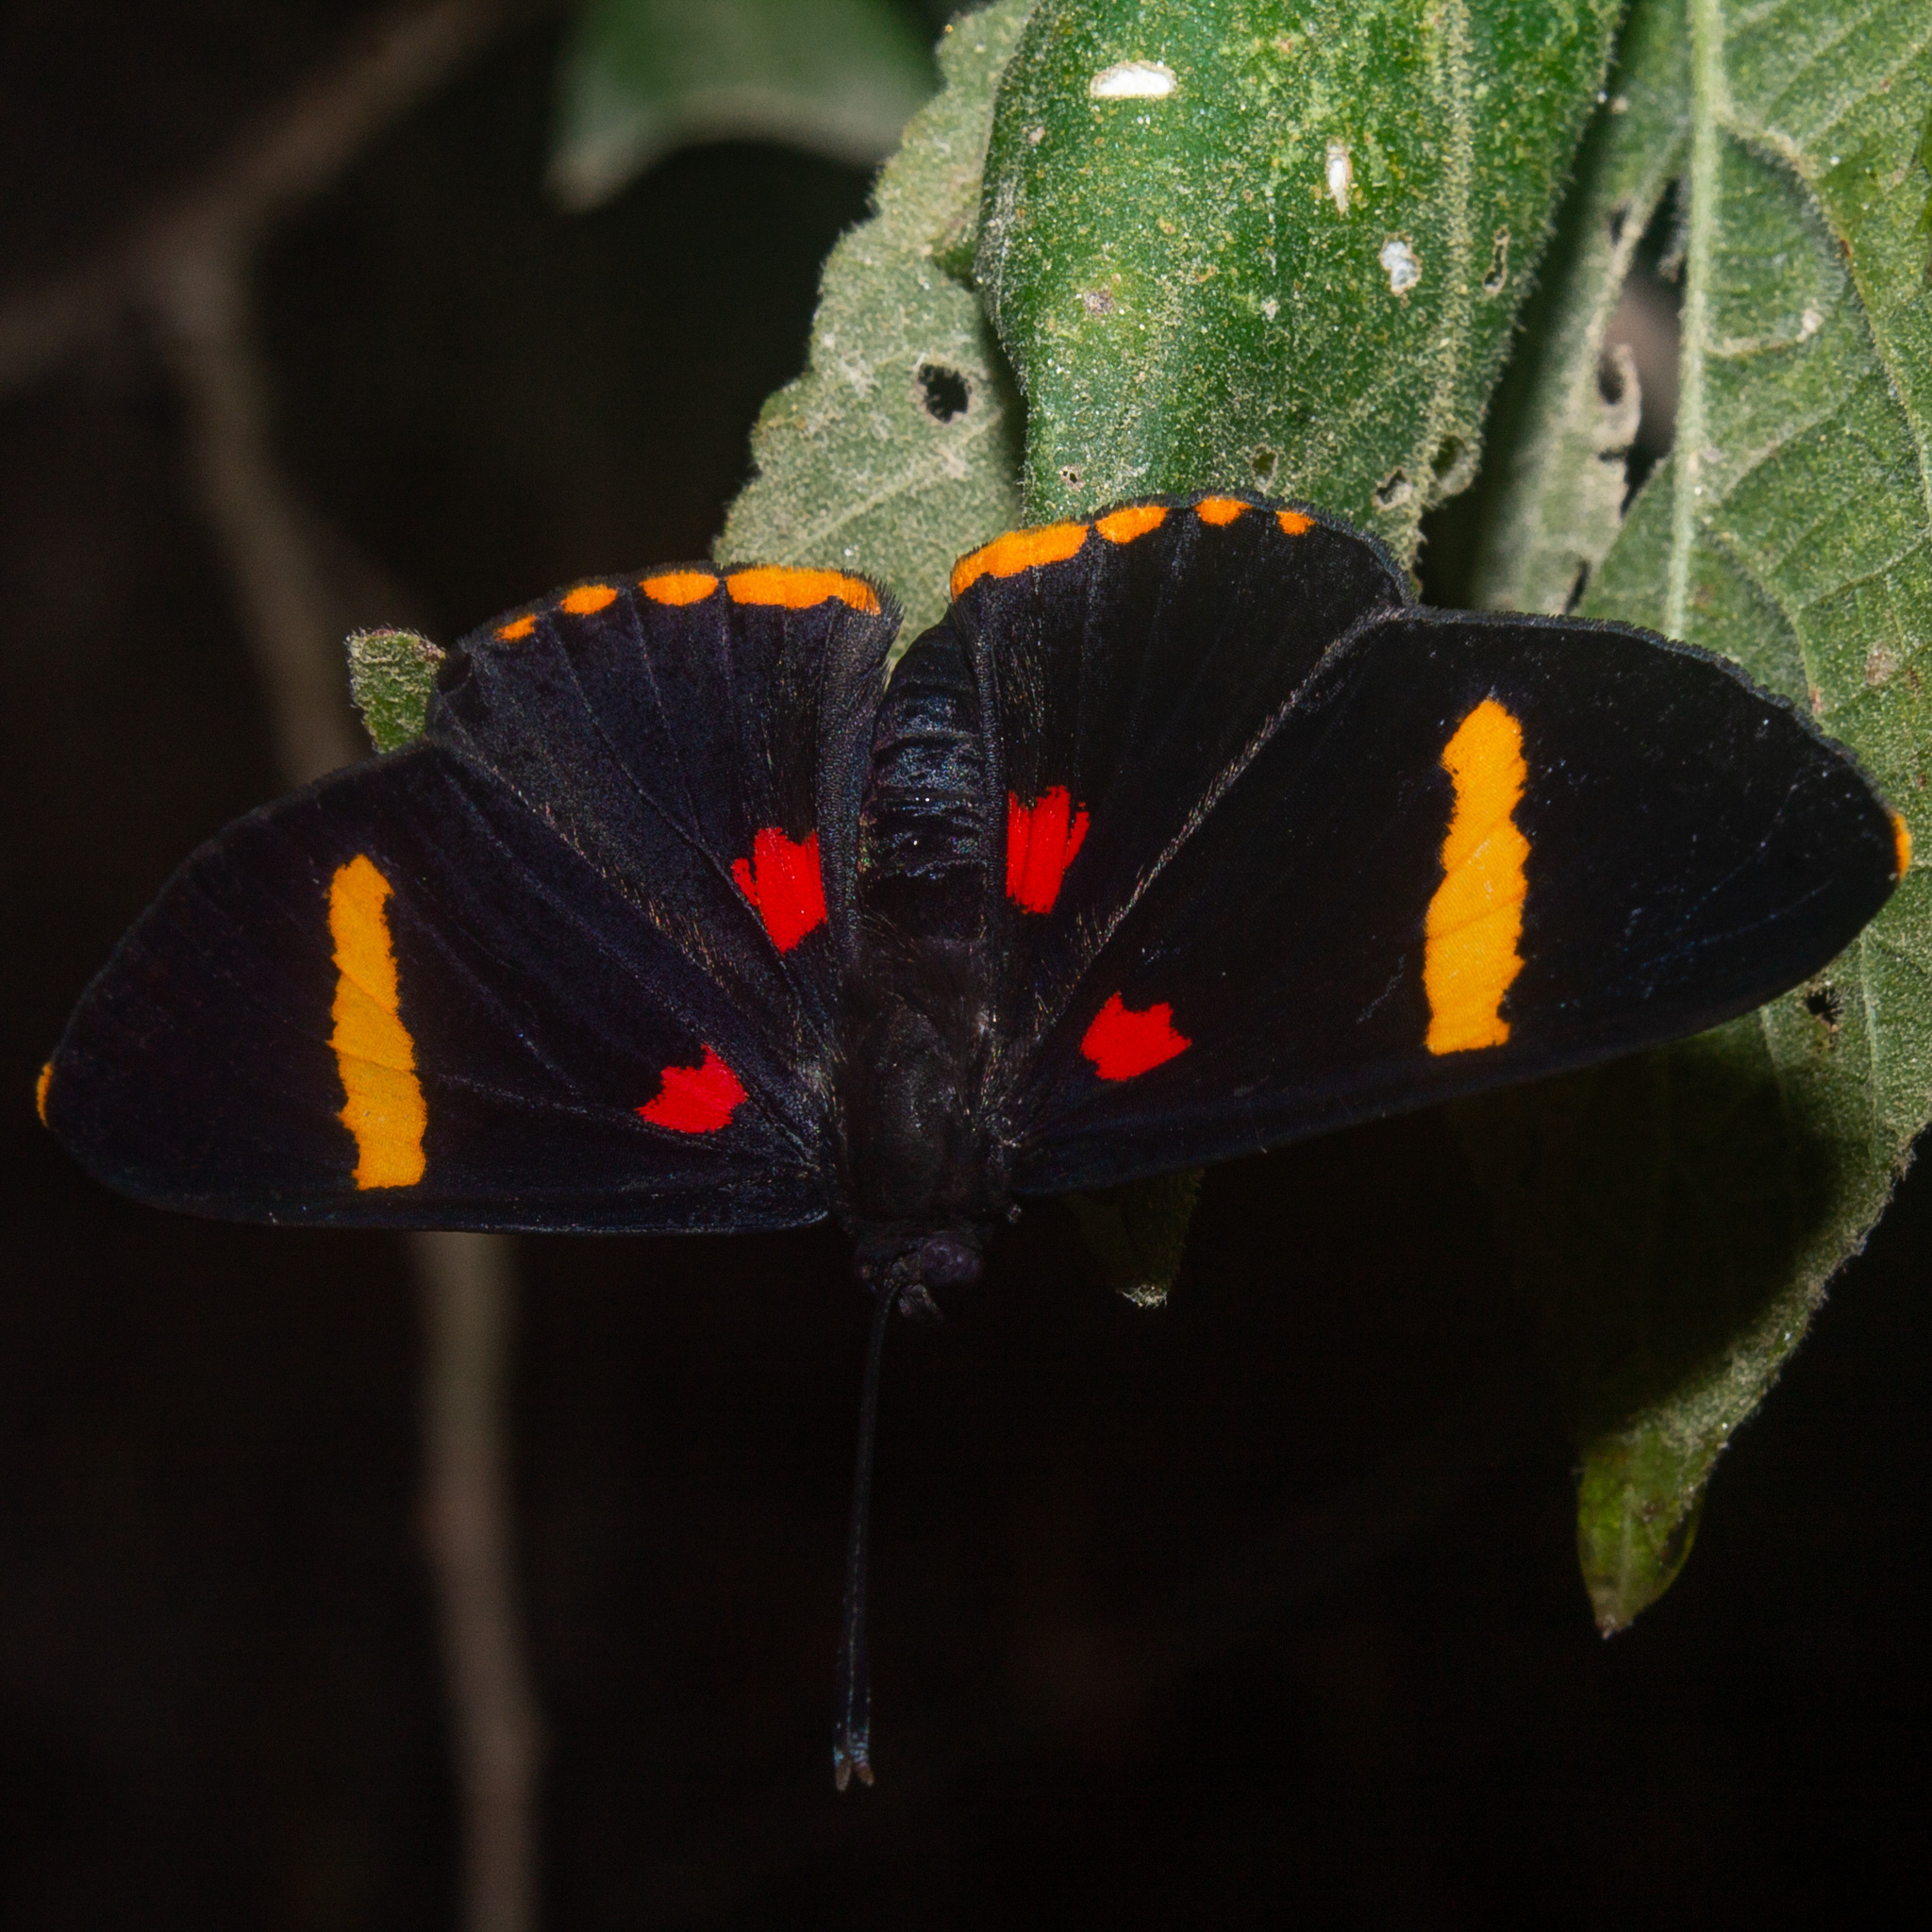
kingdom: Animalia
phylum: Arthropoda
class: Insecta
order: Lepidoptera
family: Lycaenidae
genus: Melanis
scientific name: Melanis electron
